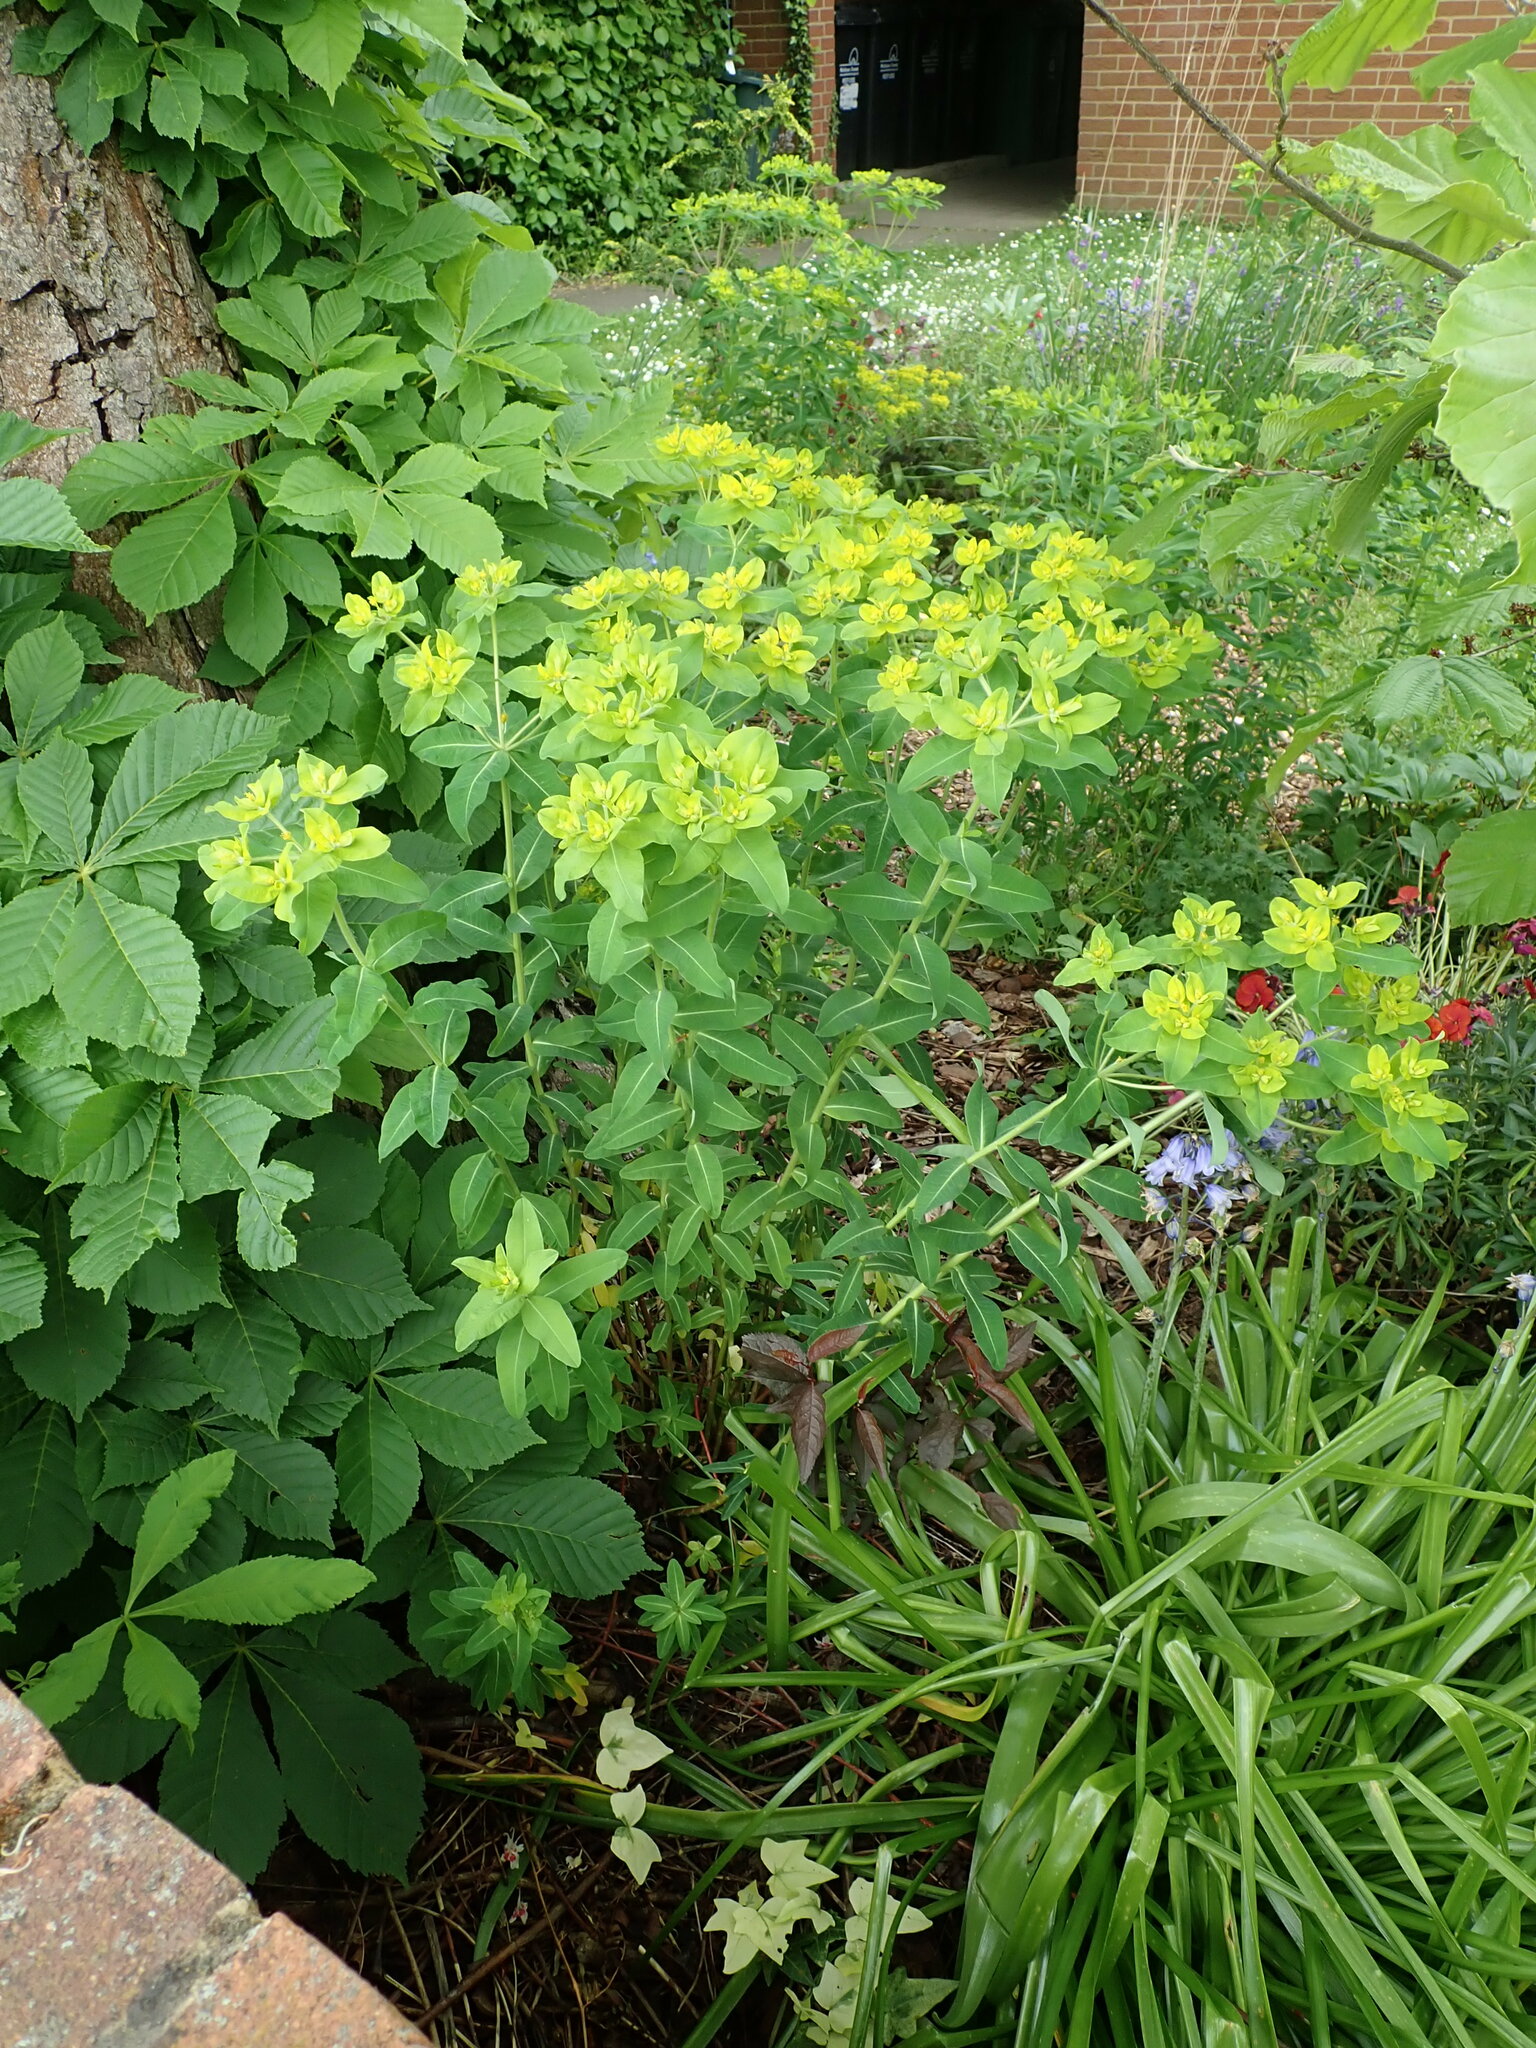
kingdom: Plantae
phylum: Tracheophyta
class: Magnoliopsida
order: Malpighiales
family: Euphorbiaceae
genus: Euphorbia
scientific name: Euphorbia oblongata
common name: Balkan spurge
